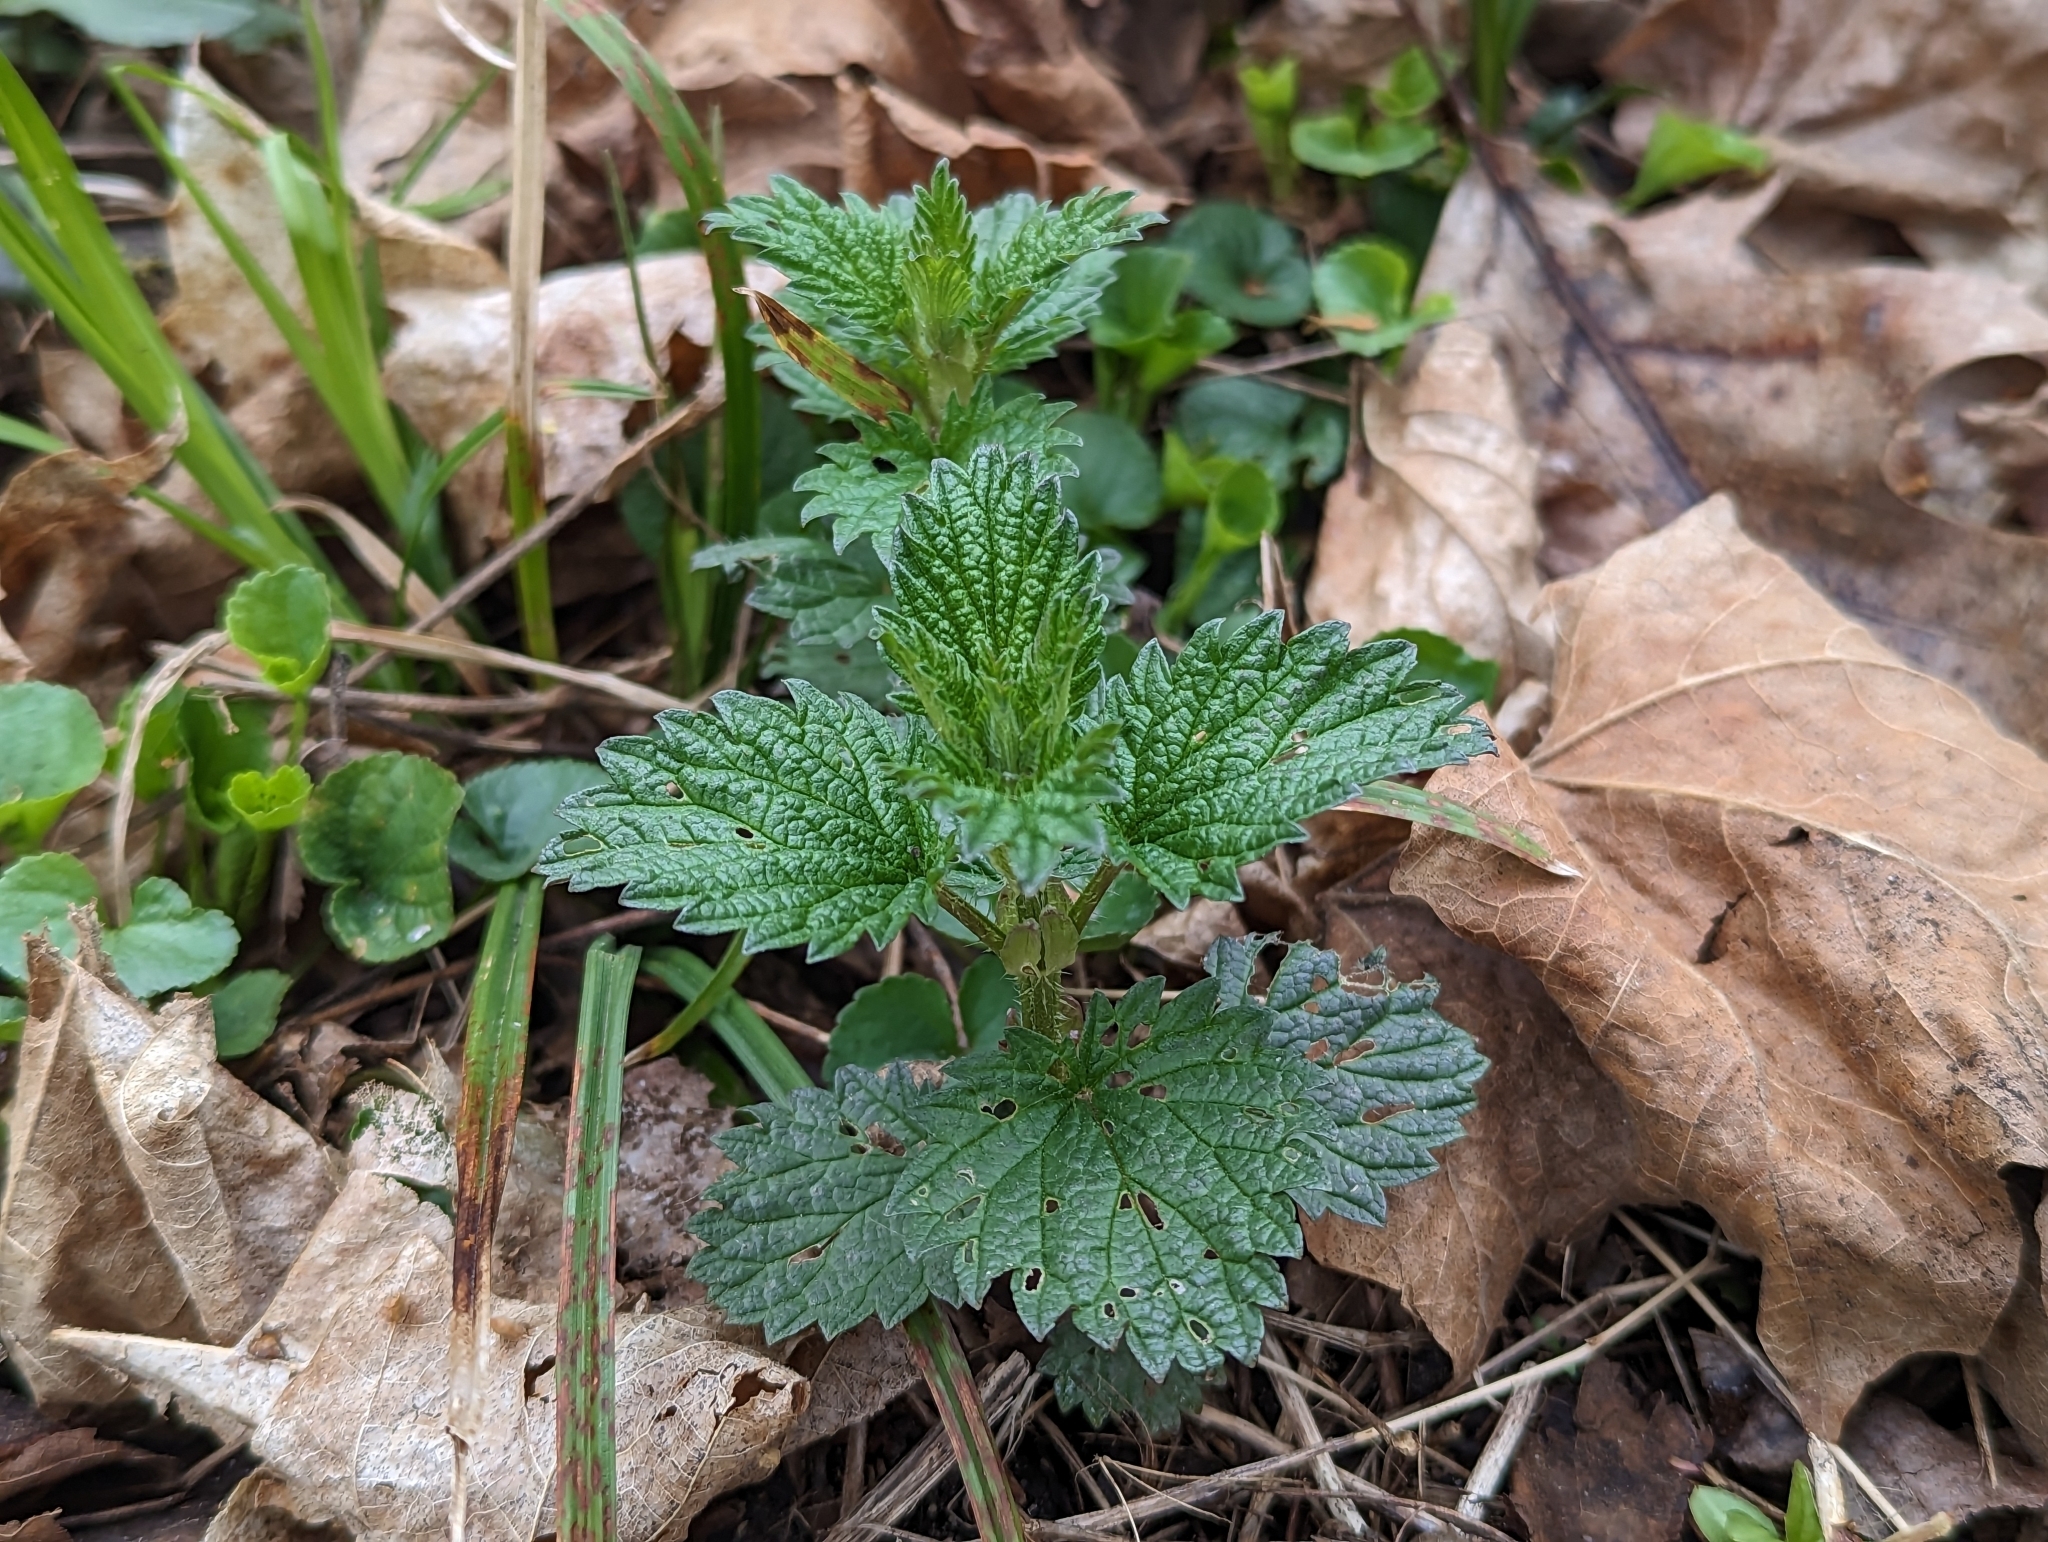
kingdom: Plantae
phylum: Tracheophyta
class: Magnoliopsida
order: Rosales
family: Urticaceae
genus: Urtica
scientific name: Urtica dioica
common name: Common nettle
